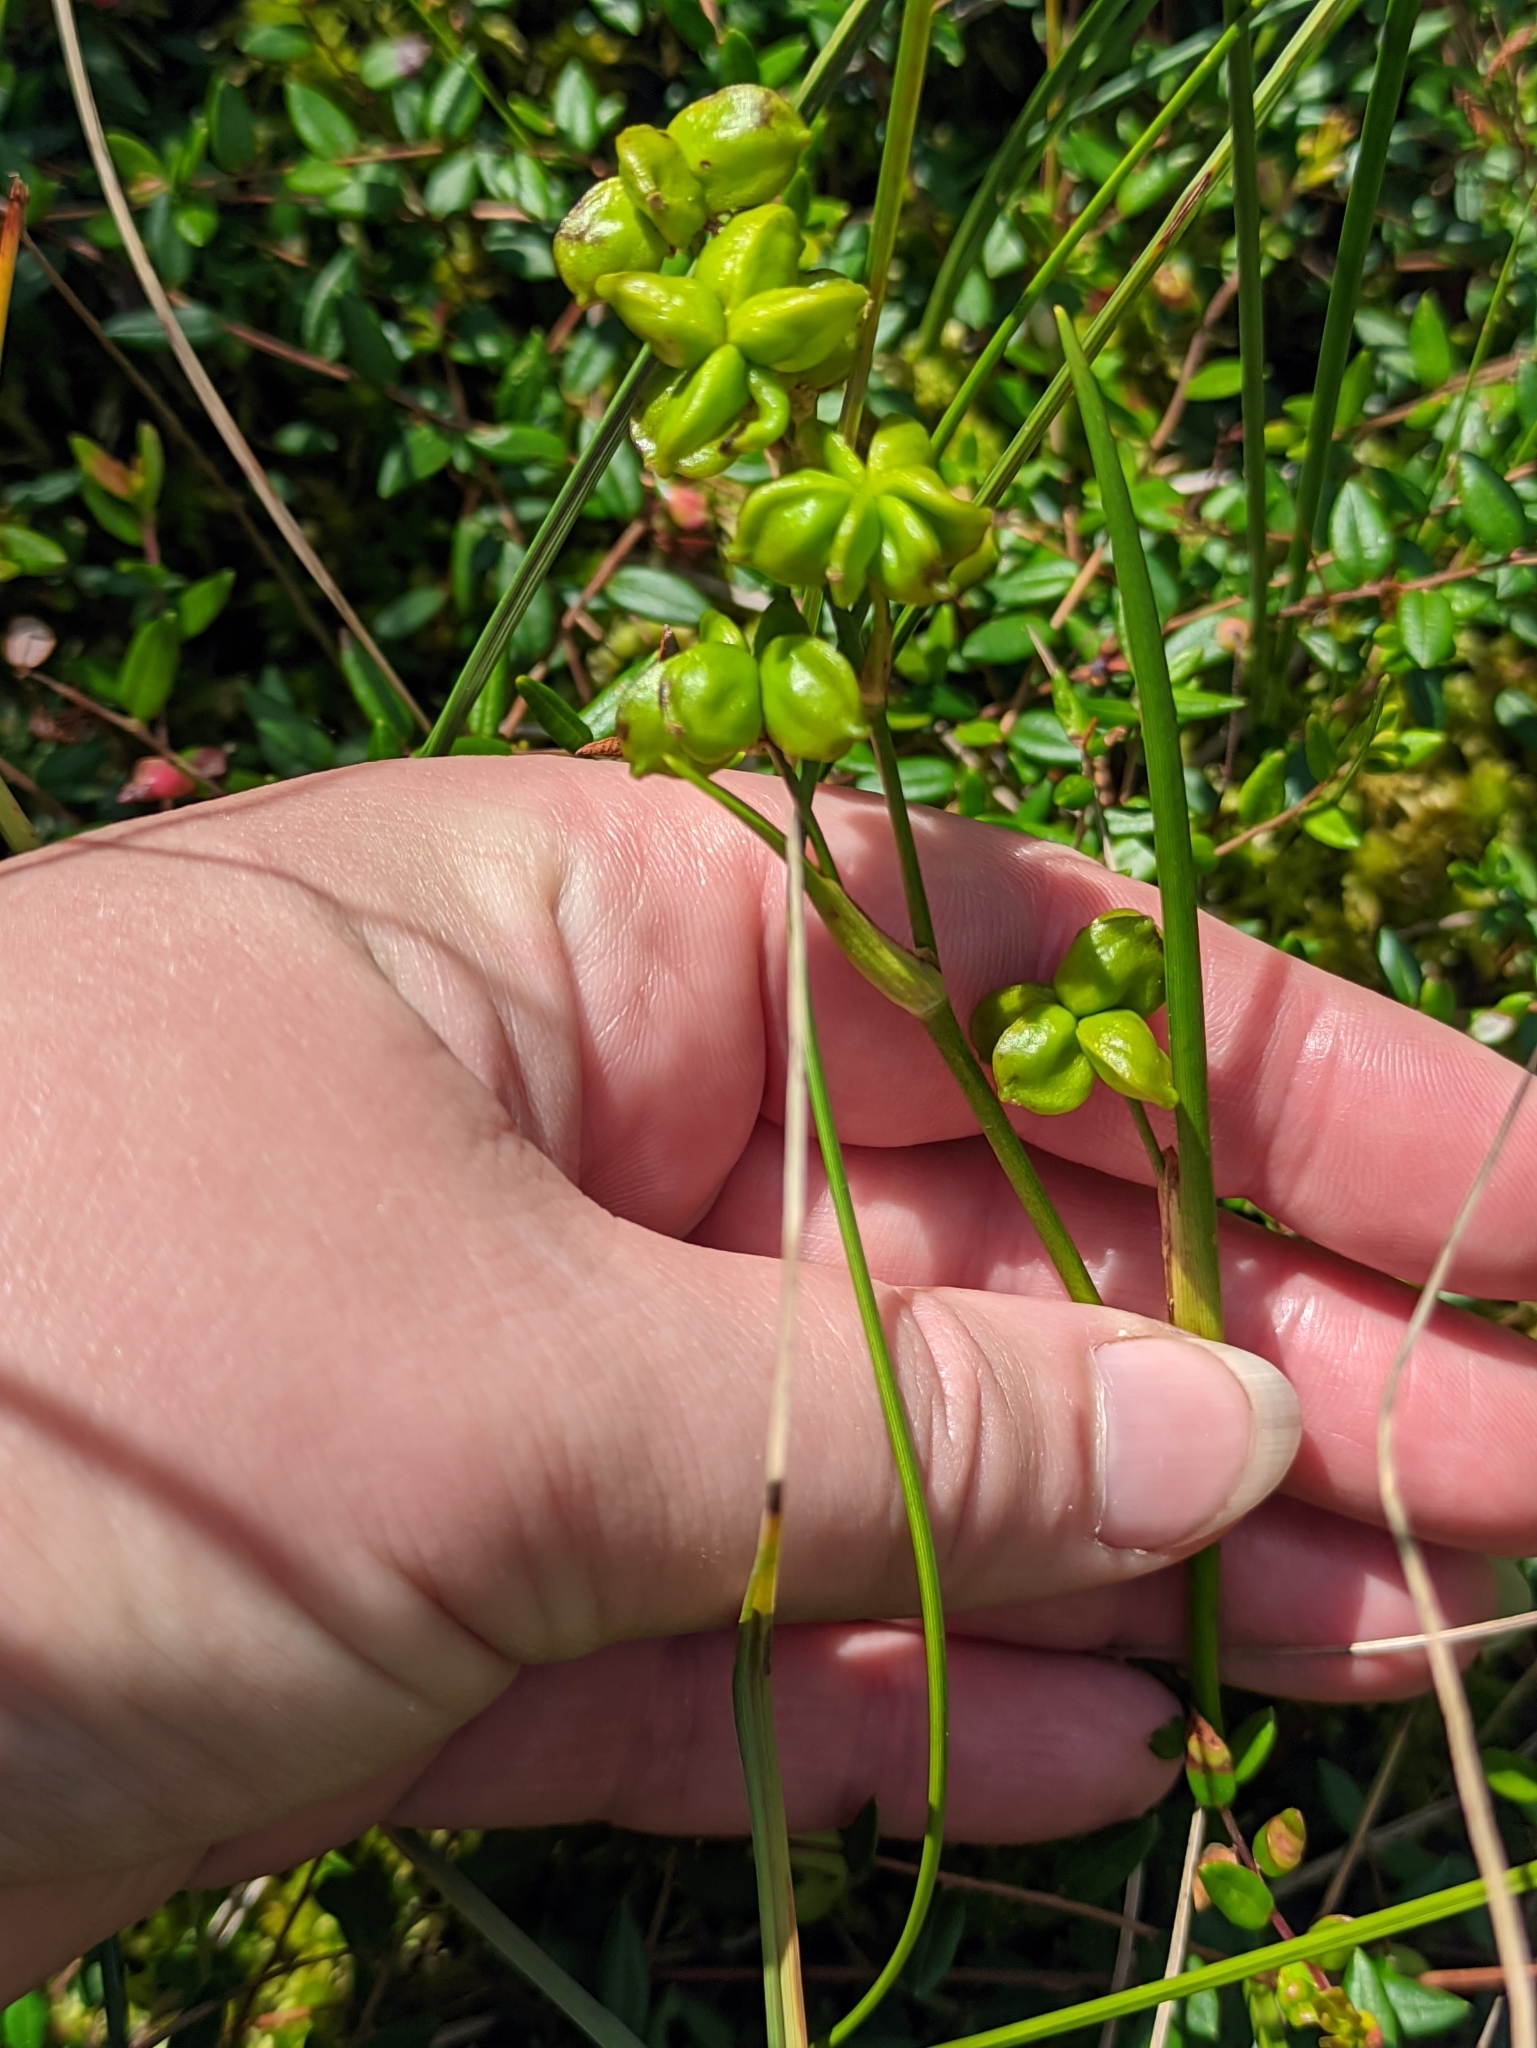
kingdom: Plantae
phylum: Tracheophyta
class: Liliopsida
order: Alismatales
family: Scheuchzeriaceae
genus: Scheuchzeria
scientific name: Scheuchzeria palustris
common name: Rannoch-rush
